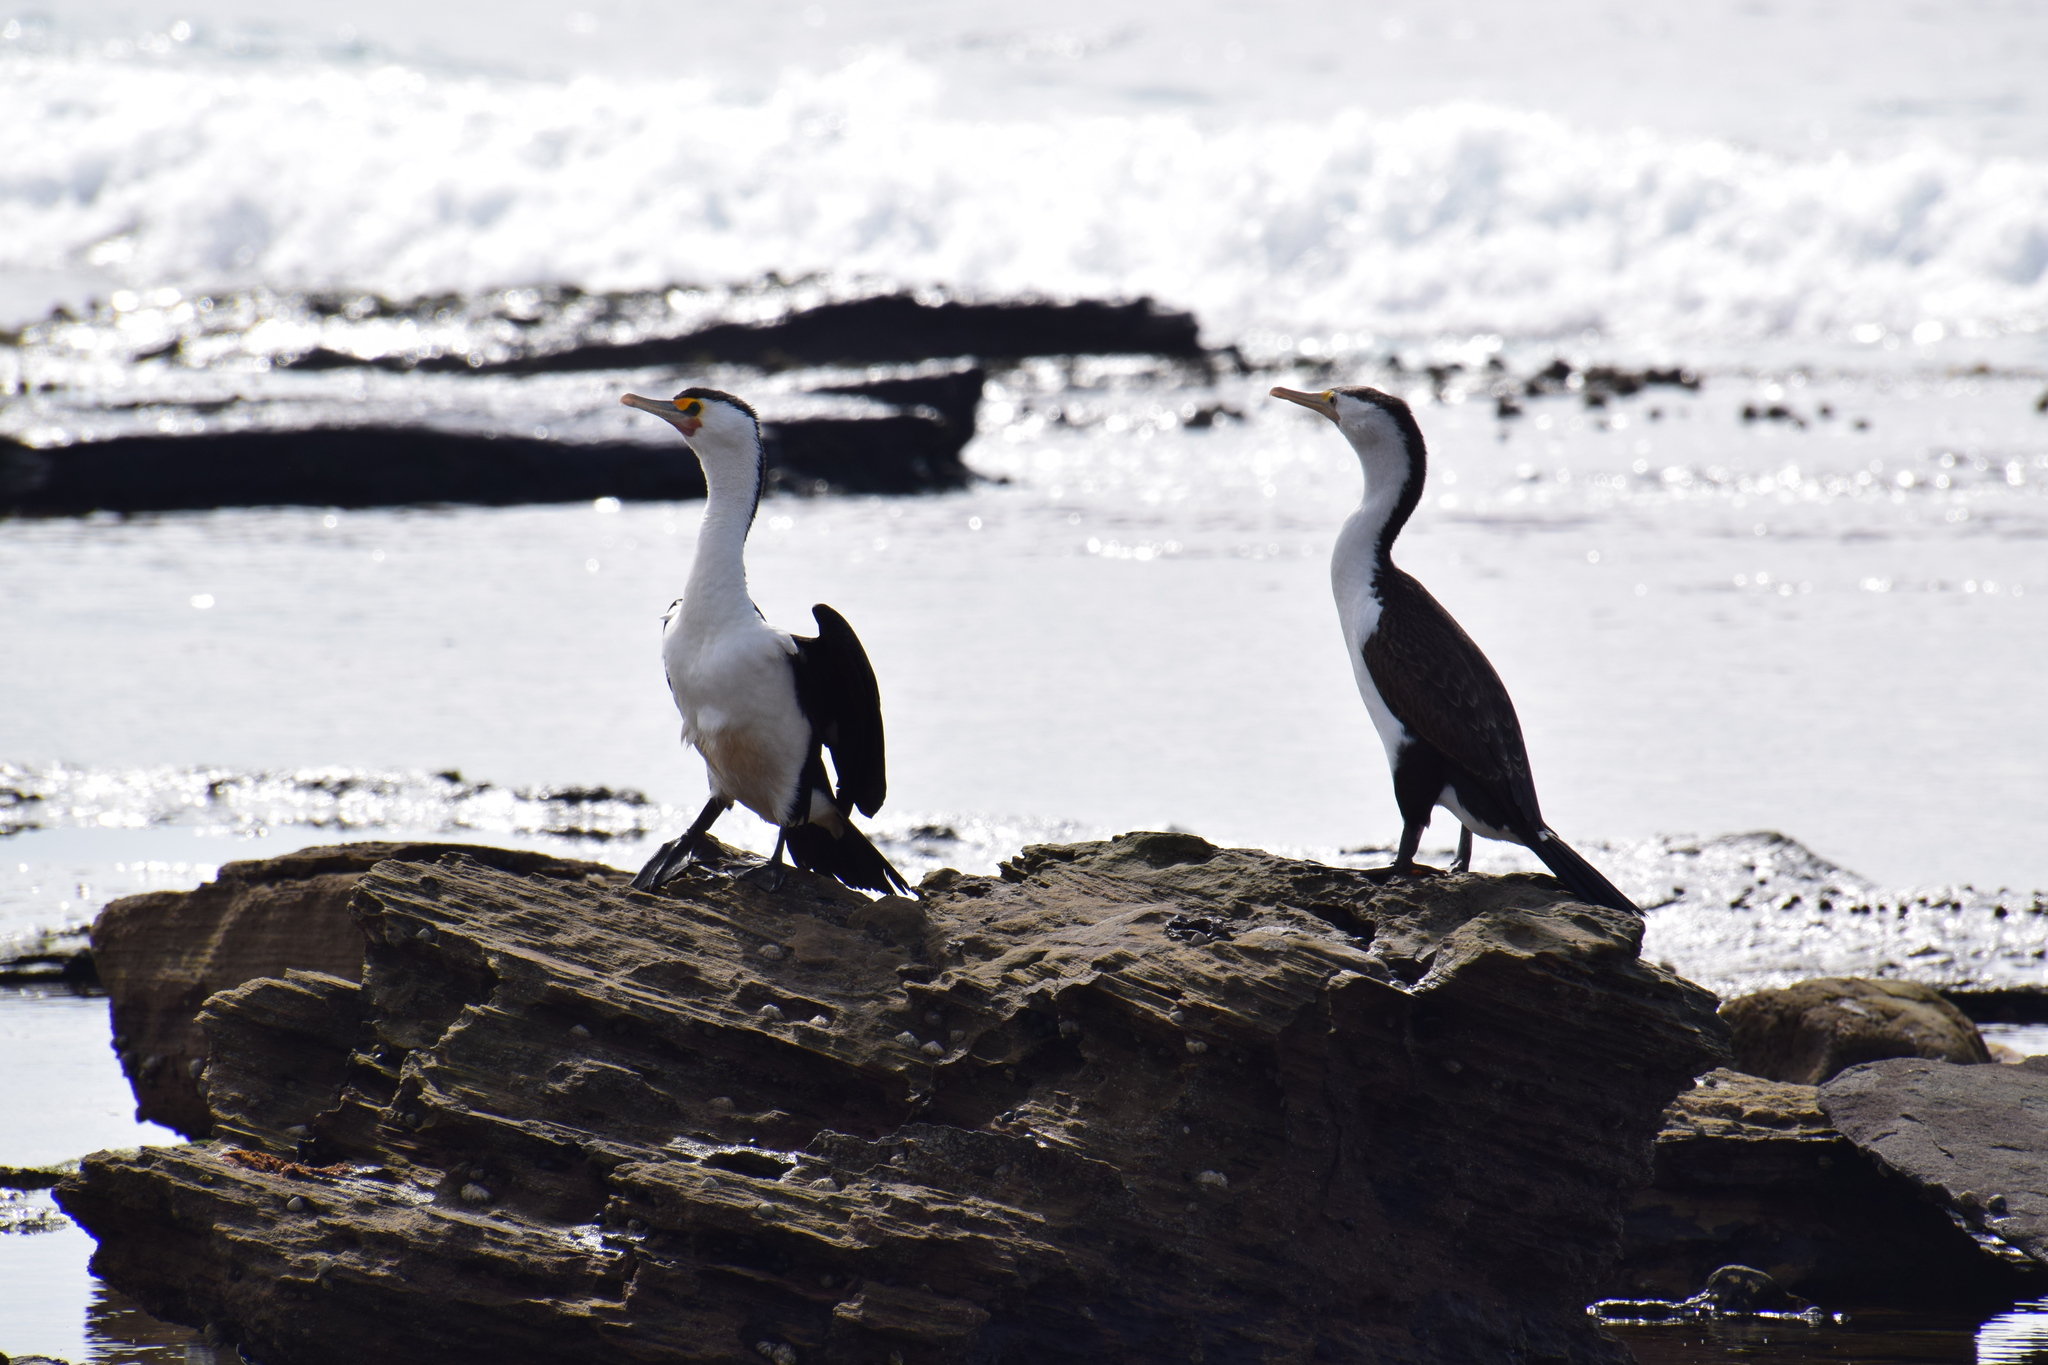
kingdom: Animalia
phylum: Chordata
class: Aves
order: Suliformes
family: Phalacrocoracidae
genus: Phalacrocorax
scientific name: Phalacrocorax varius
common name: Pied cormorant
